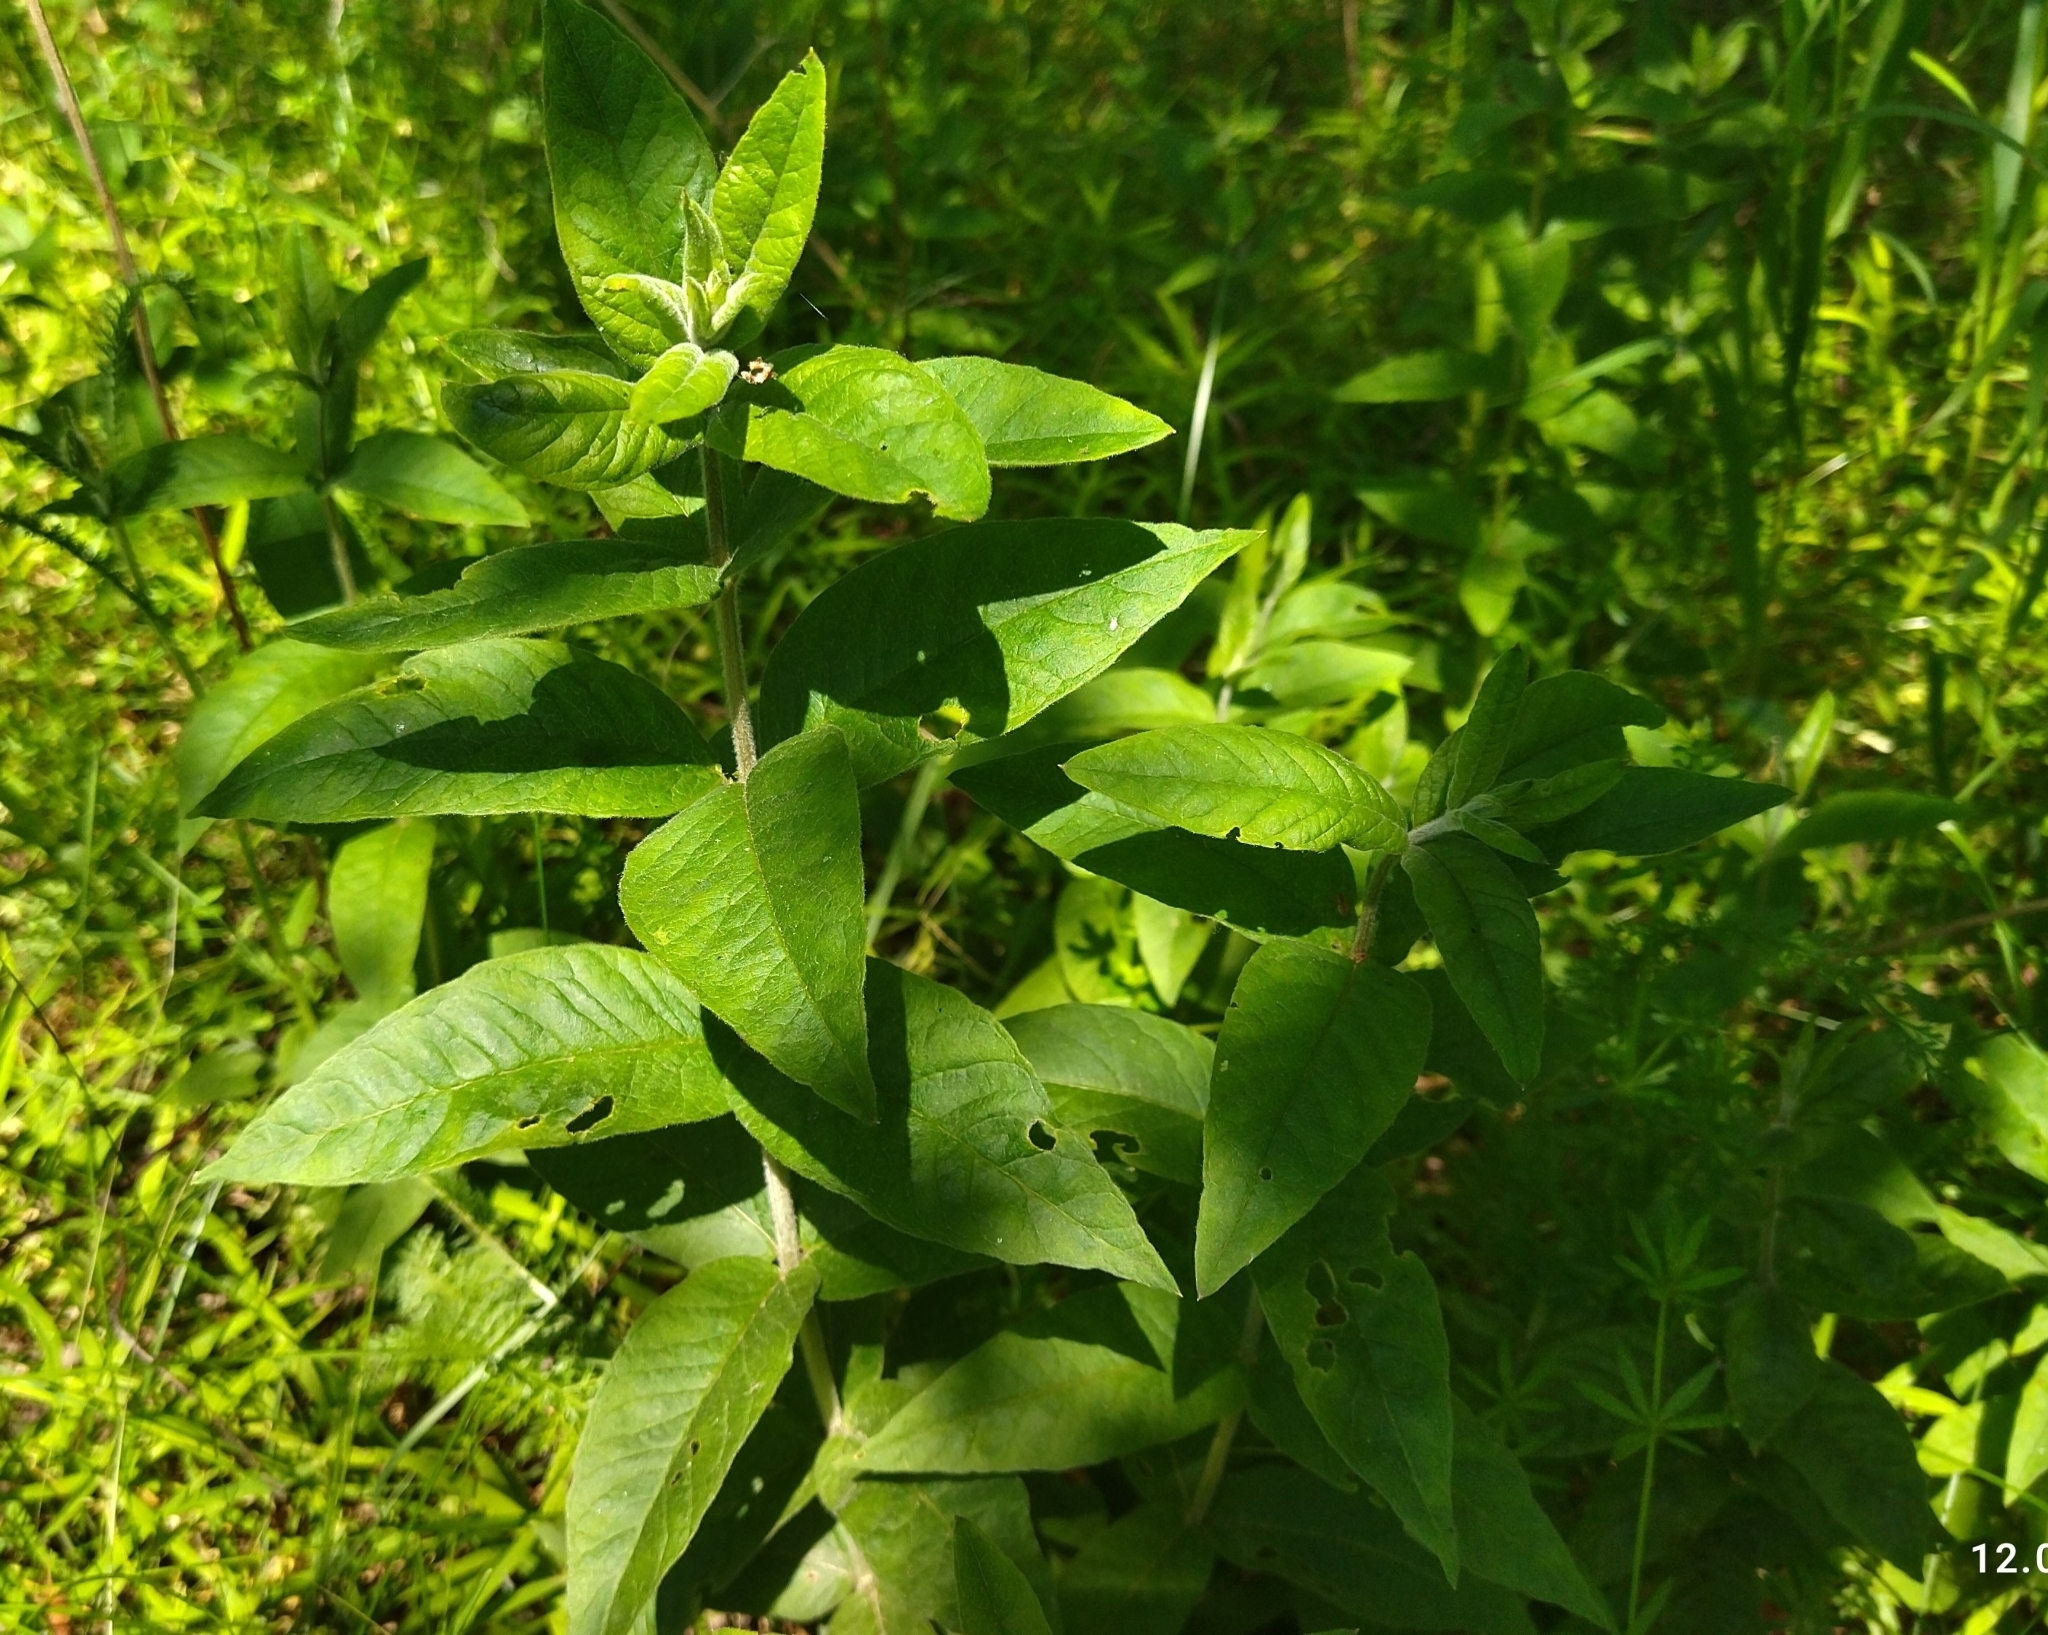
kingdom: Plantae
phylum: Tracheophyta
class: Magnoliopsida
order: Ericales
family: Primulaceae
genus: Lysimachia
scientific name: Lysimachia vulgaris
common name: Yellow loosestrife
